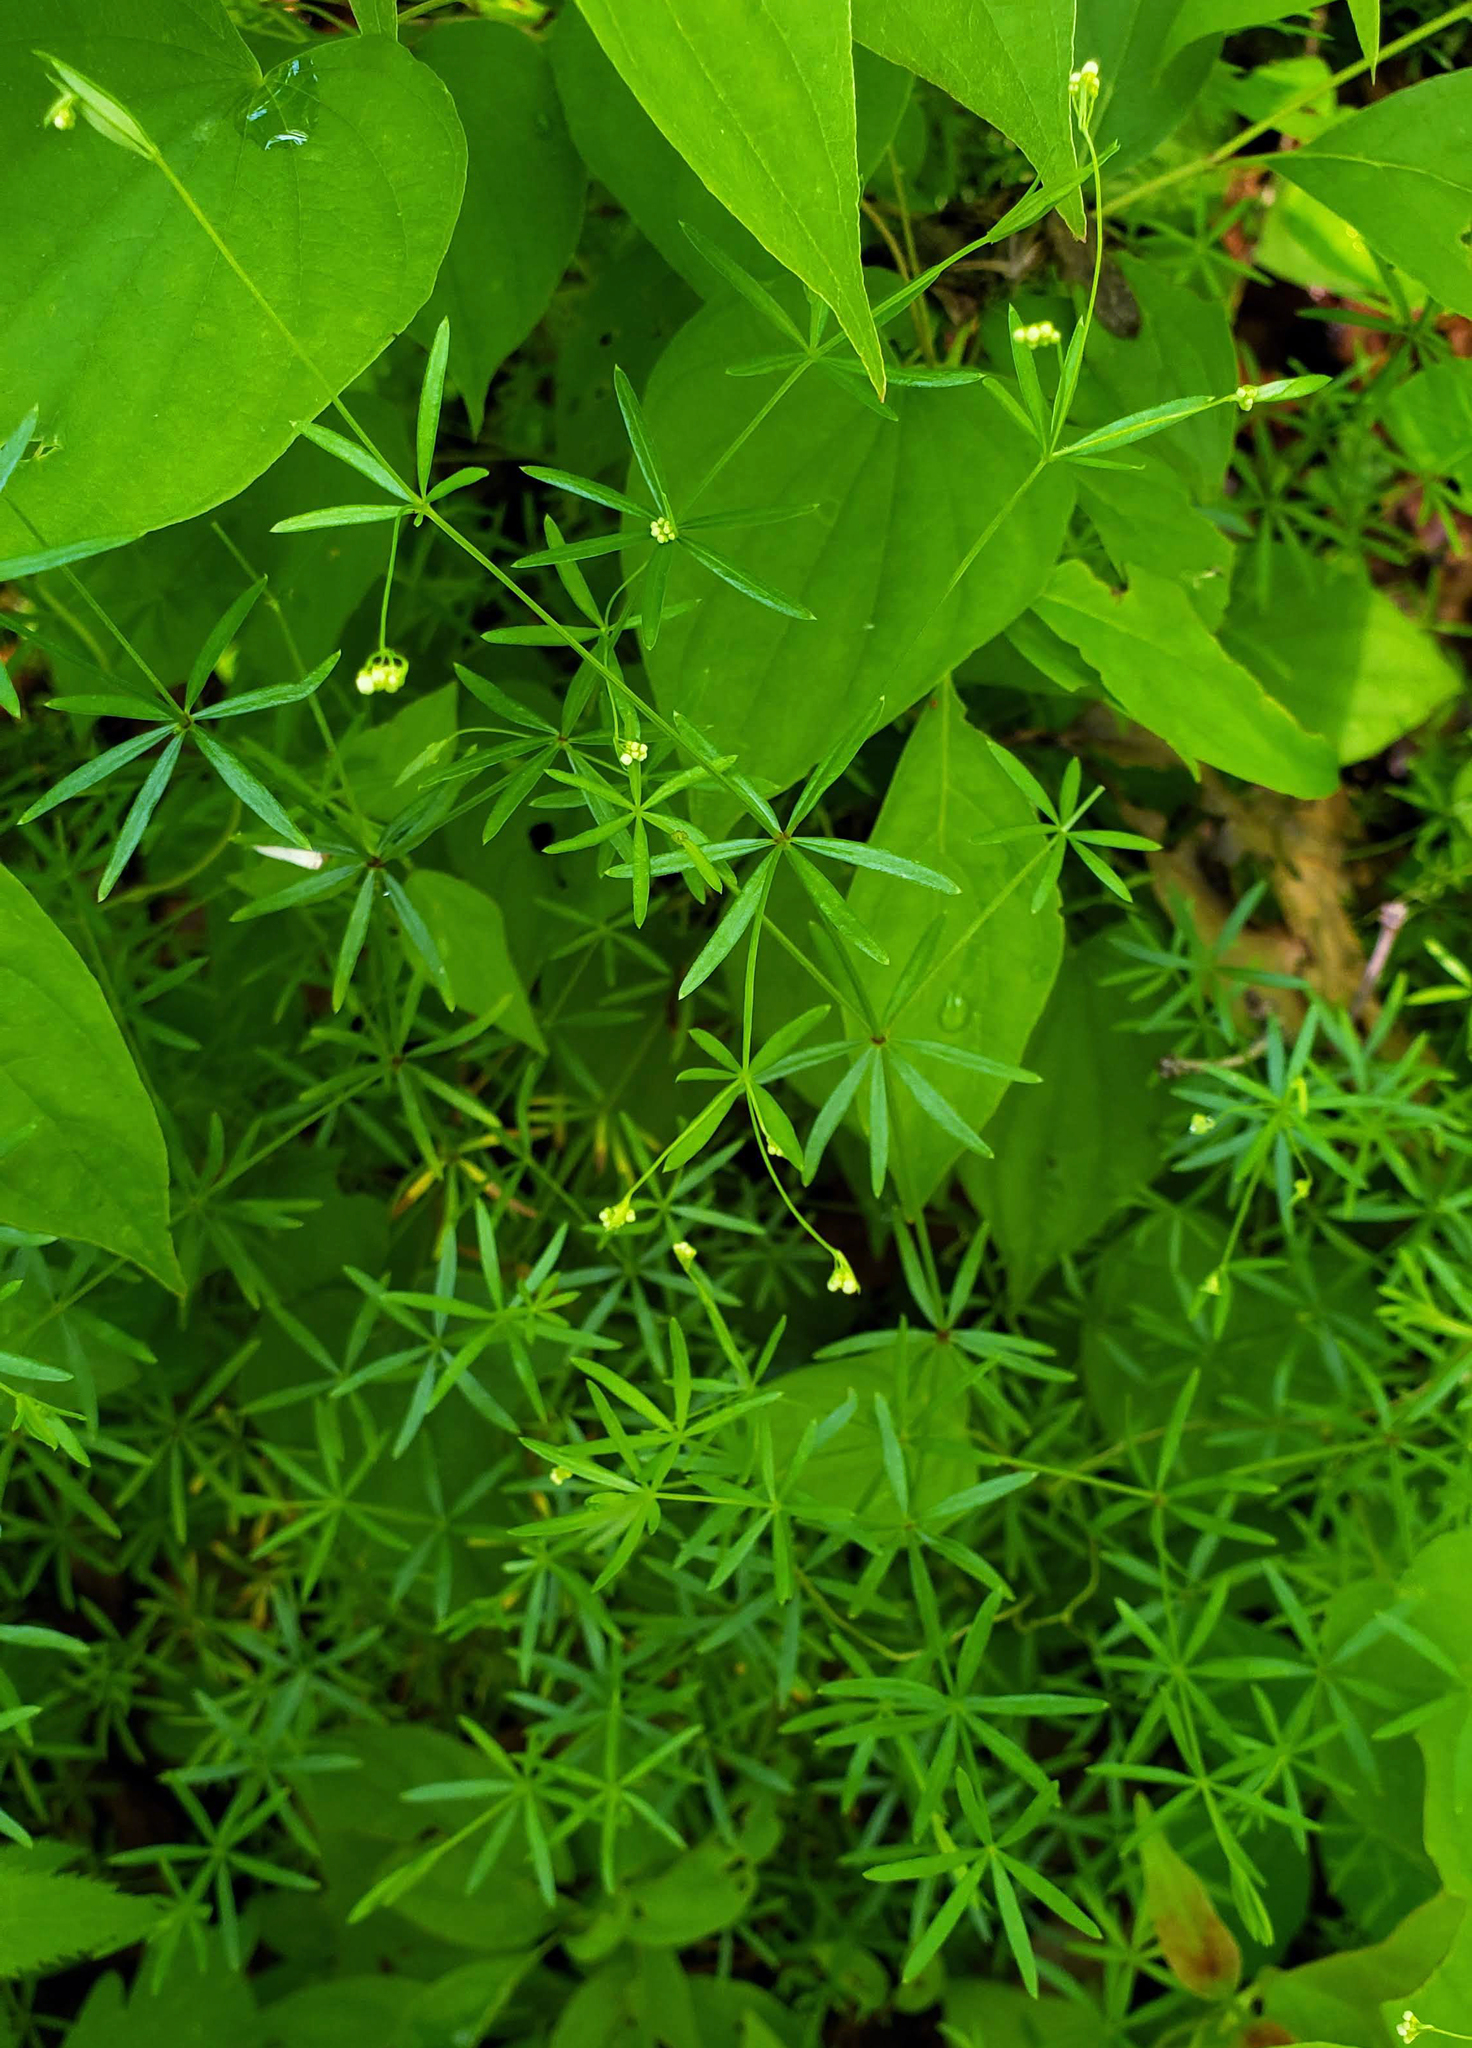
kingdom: Plantae
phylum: Tracheophyta
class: Magnoliopsida
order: Gentianales
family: Rubiaceae
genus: Galium
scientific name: Galium concinnum
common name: Shining bedstraw
